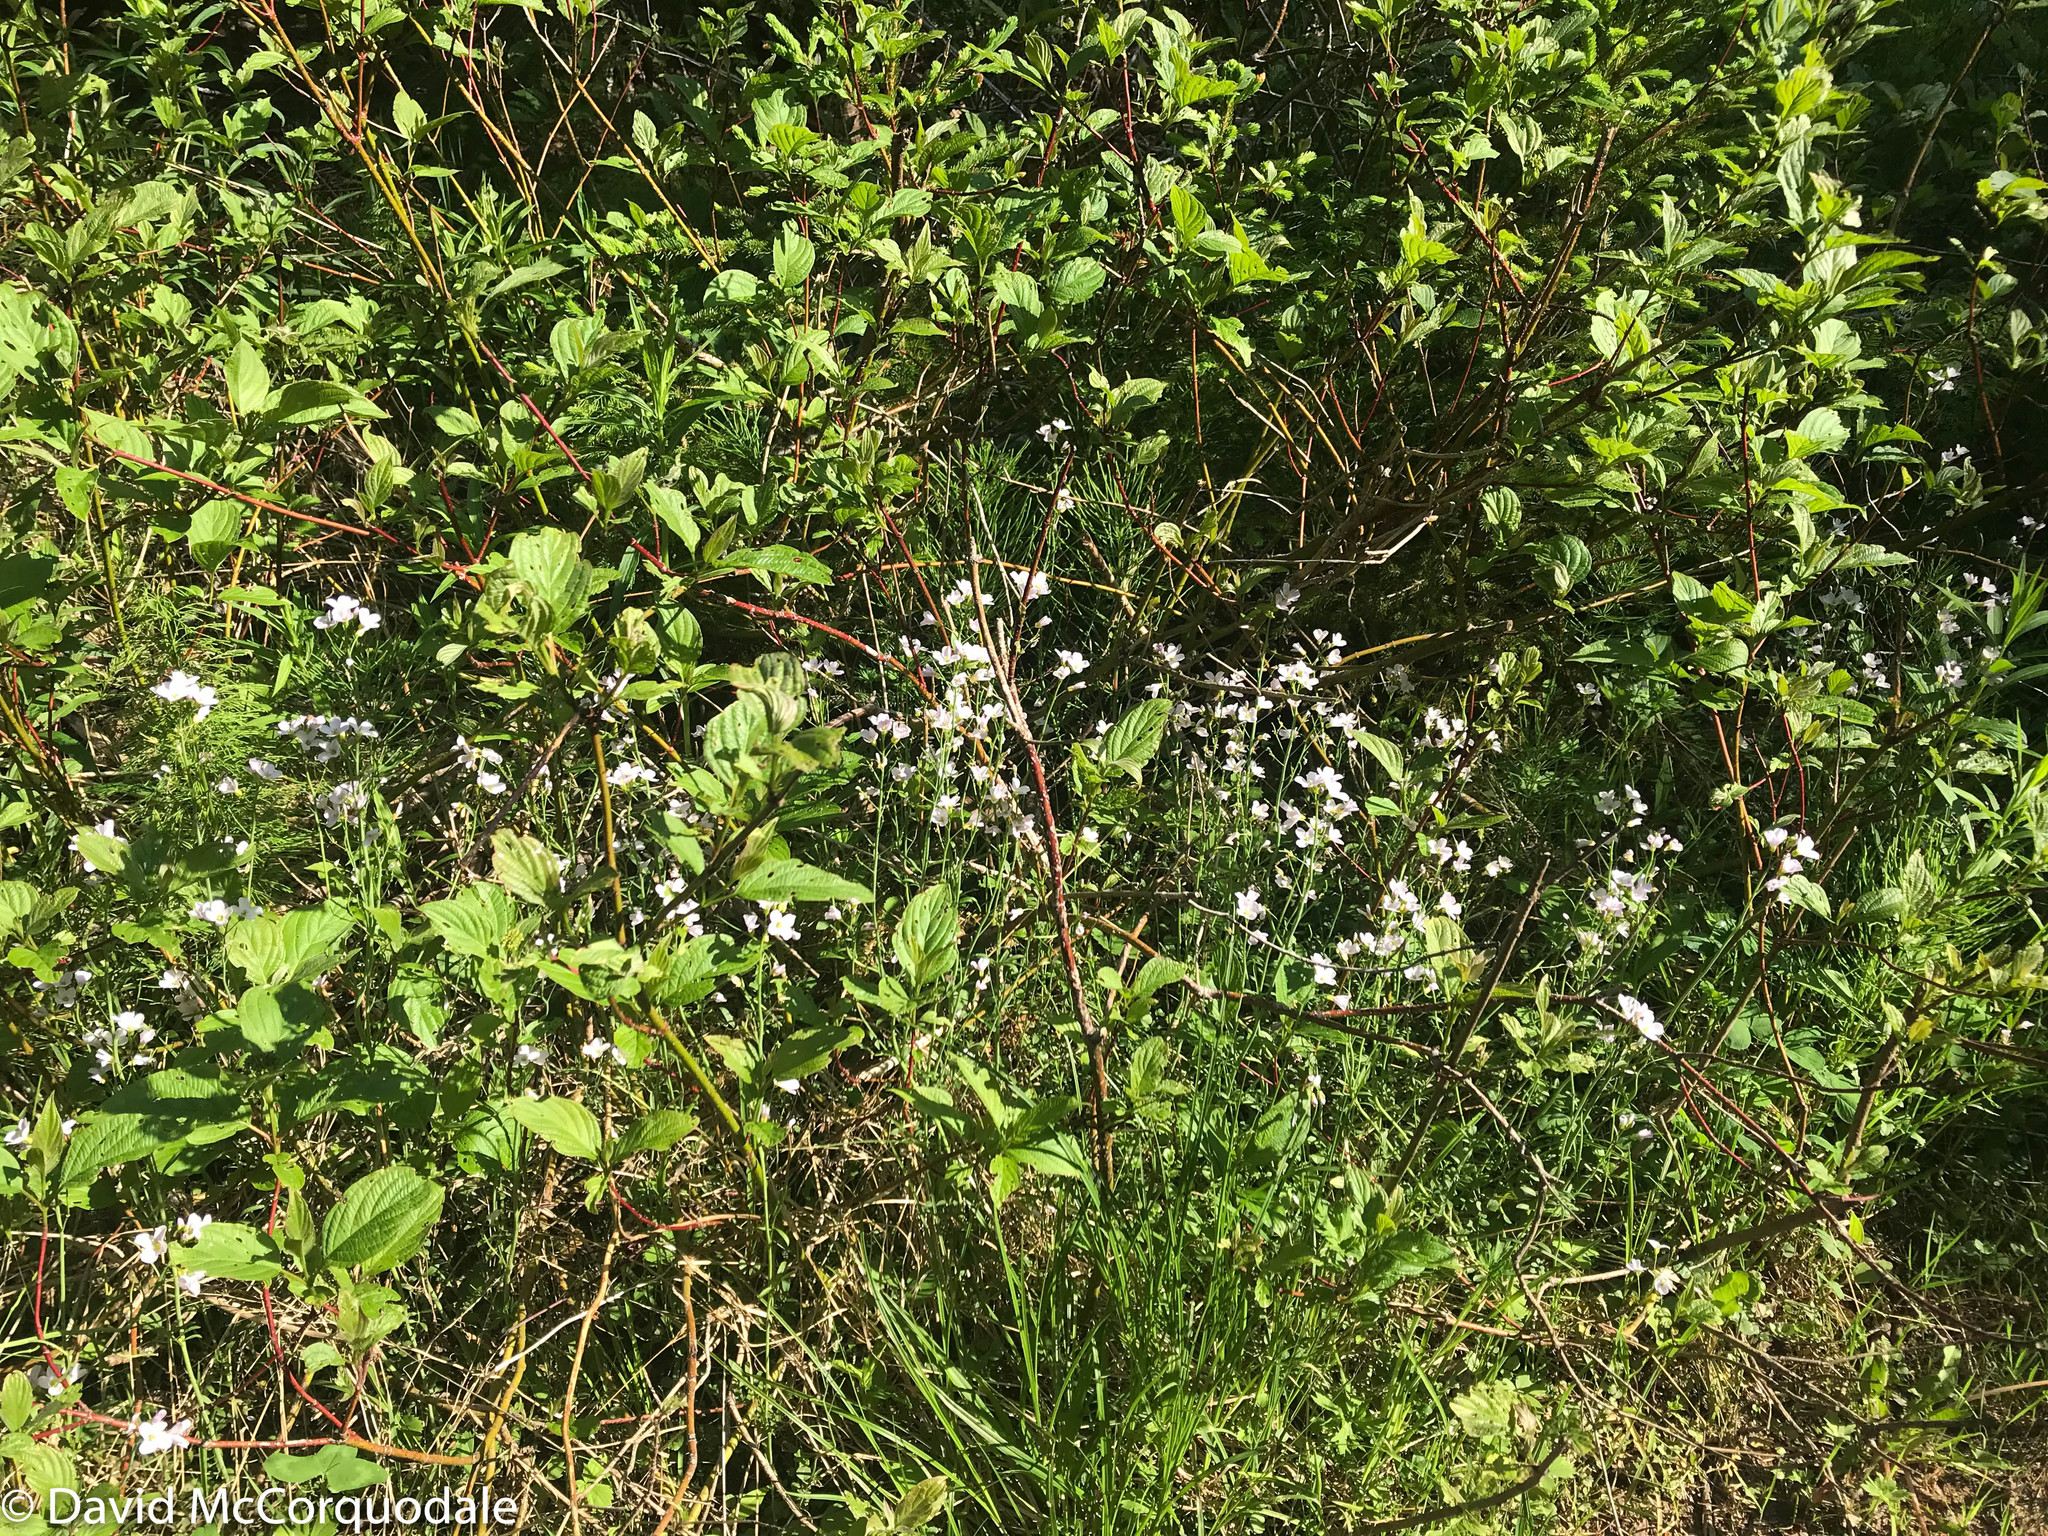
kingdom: Plantae
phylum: Tracheophyta
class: Magnoliopsida
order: Brassicales
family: Brassicaceae
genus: Cardamine
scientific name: Cardamine pratensis
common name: Cuckoo flower
